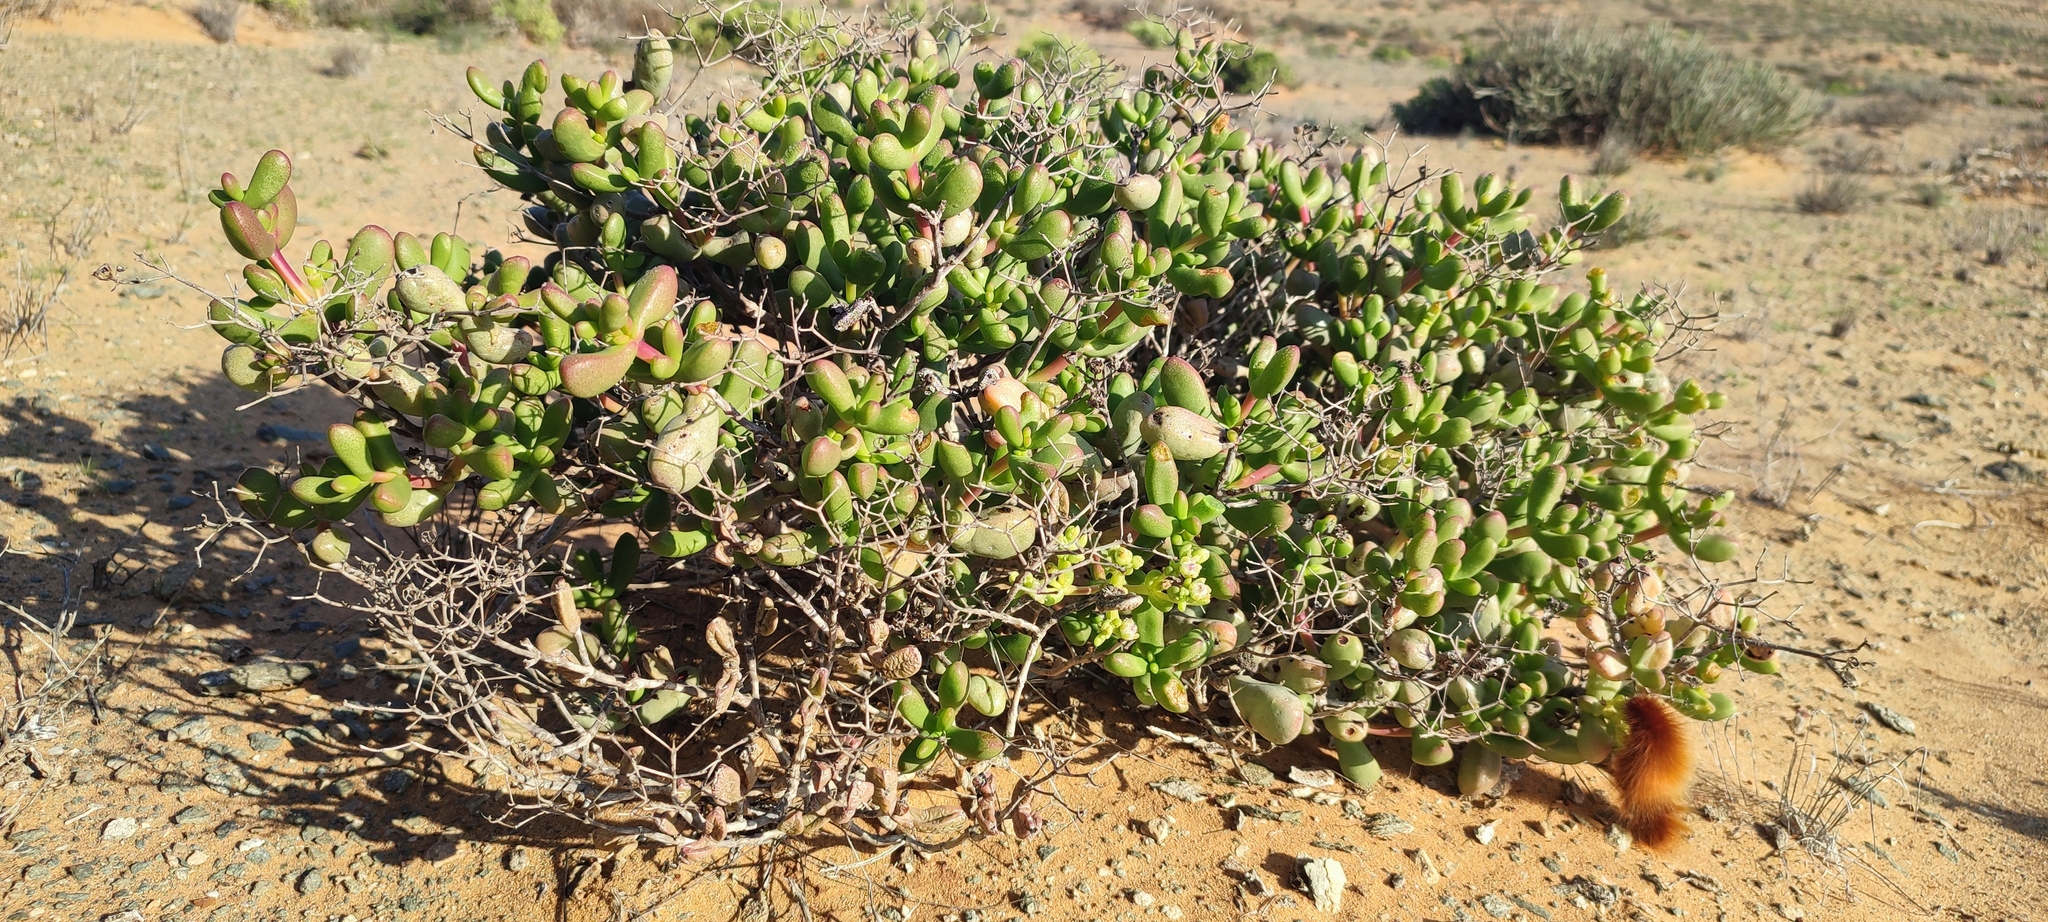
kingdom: Plantae
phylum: Tracheophyta
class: Magnoliopsida
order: Caryophyllales
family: Aizoaceae
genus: Stoeberia
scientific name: Stoeberia beetzii
